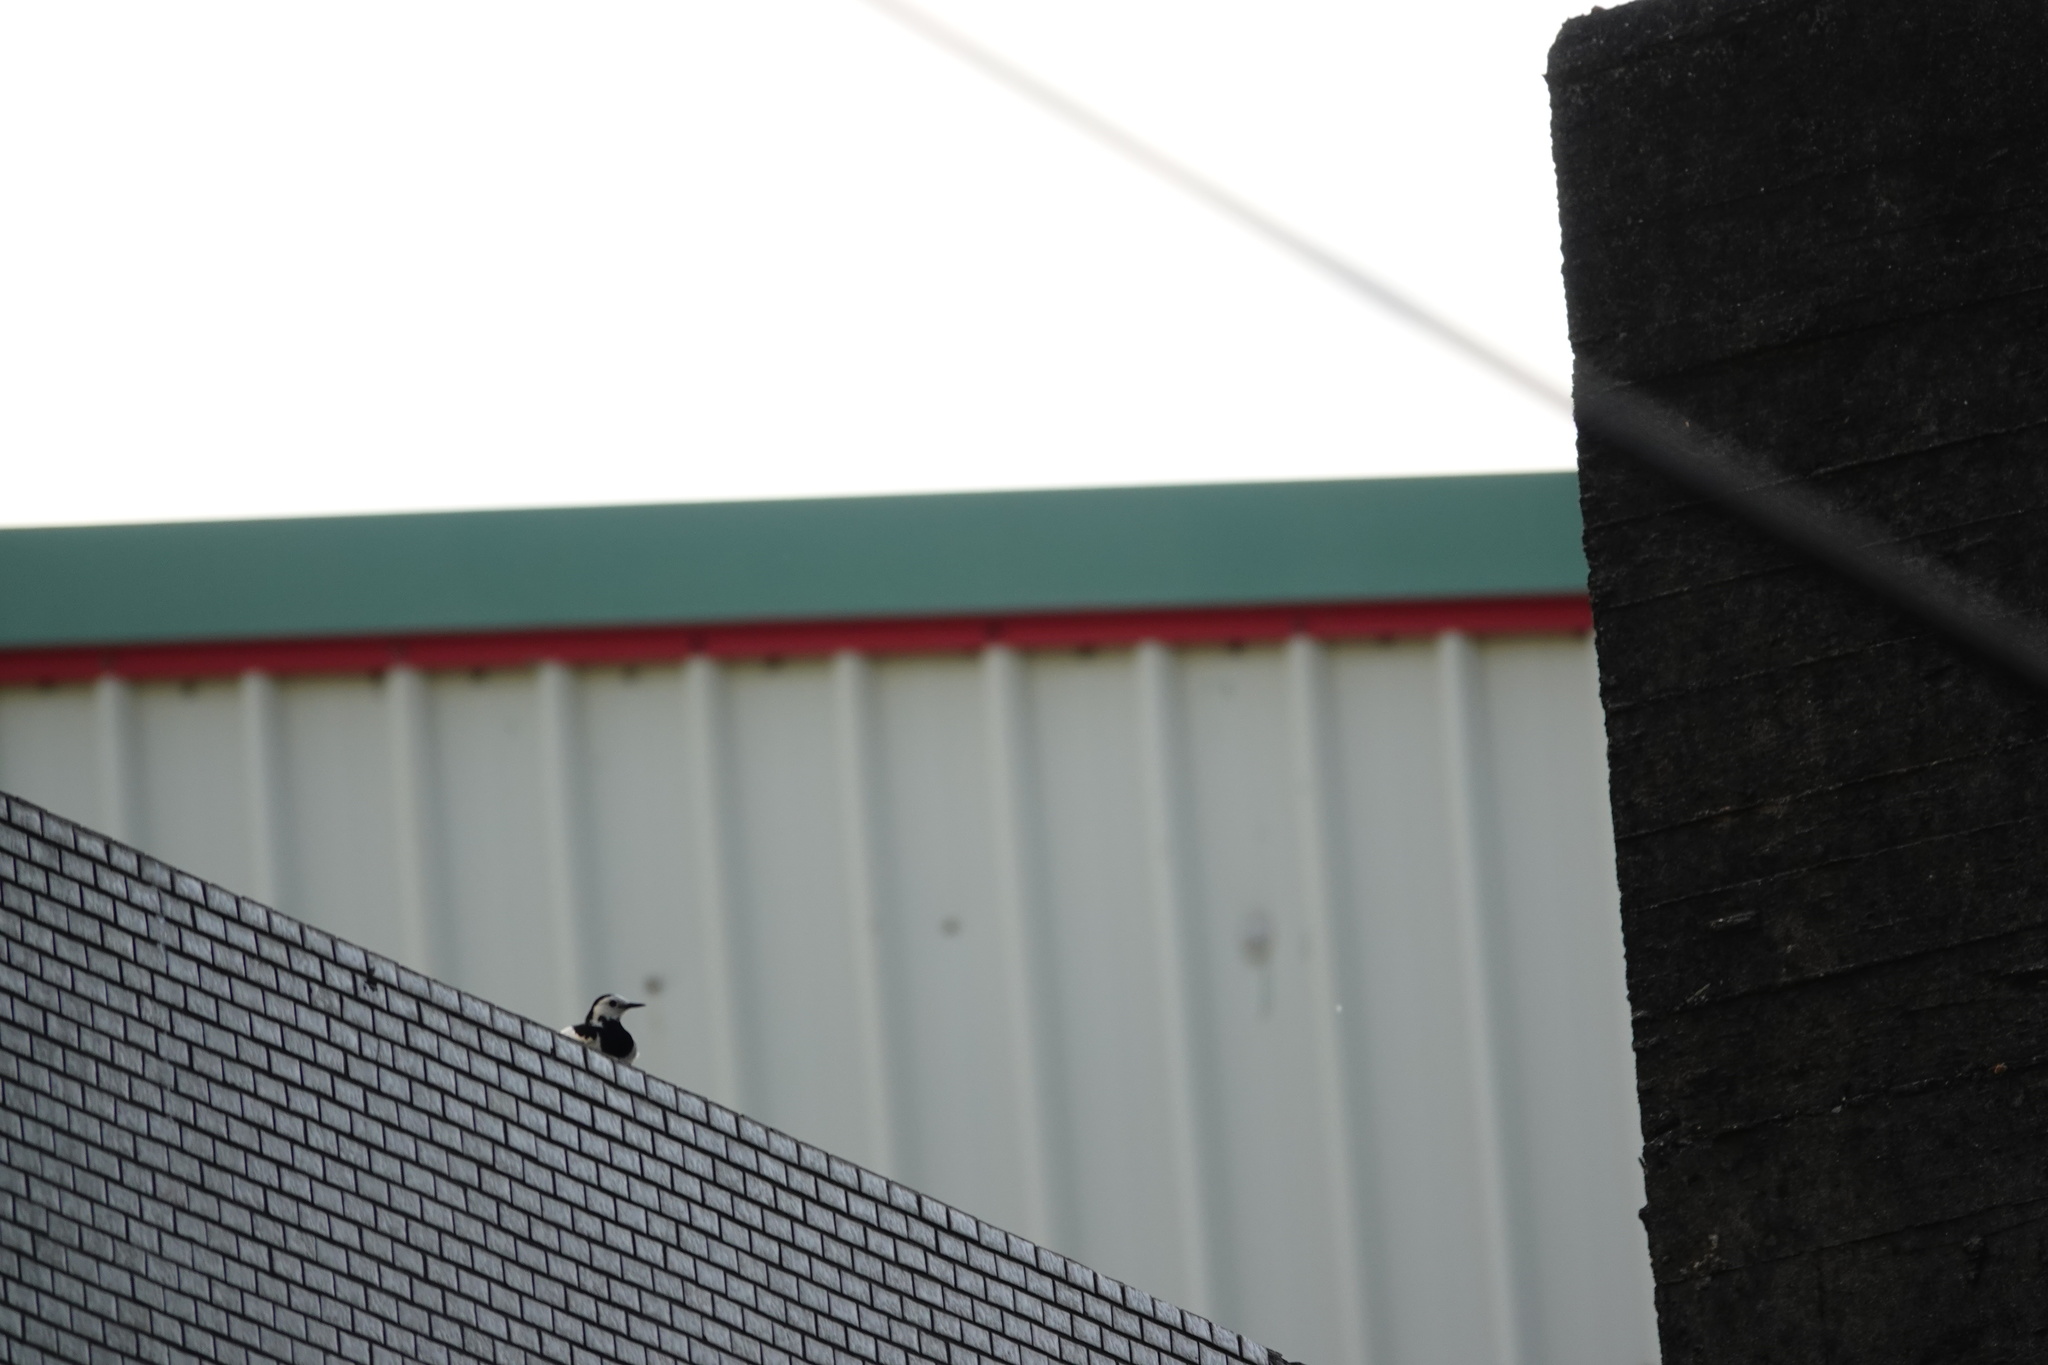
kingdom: Animalia
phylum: Chordata
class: Aves
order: Passeriformes
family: Motacillidae
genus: Motacilla
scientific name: Motacilla alba
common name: White wagtail
